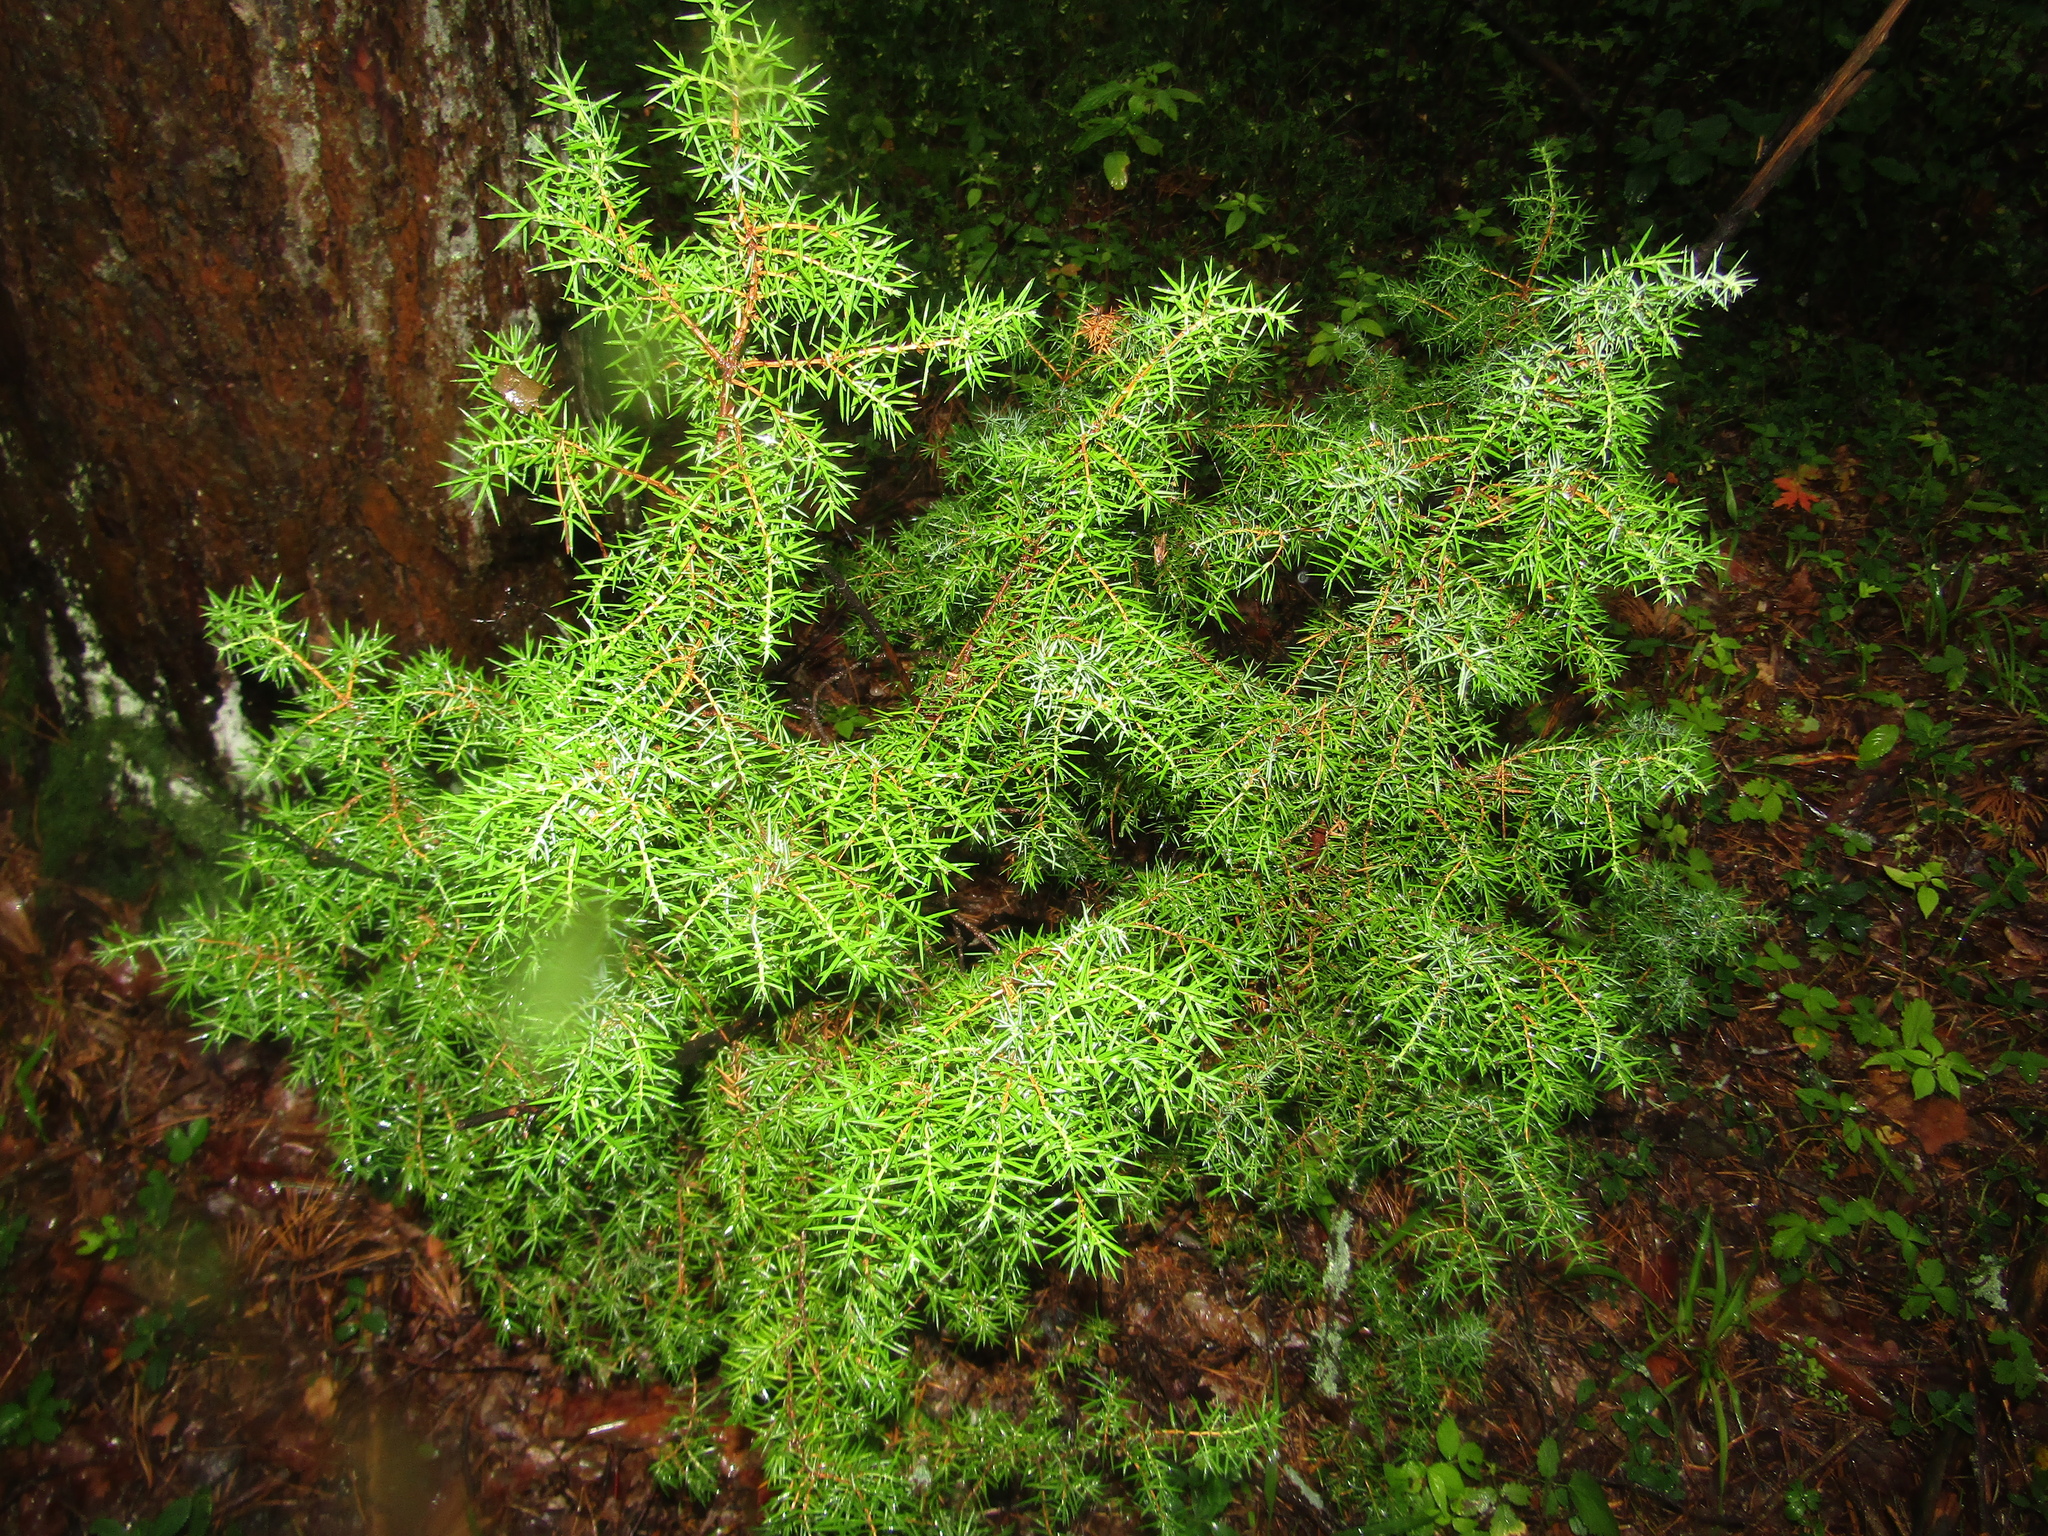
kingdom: Plantae
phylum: Tracheophyta
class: Pinopsida
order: Pinales
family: Cupressaceae
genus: Juniperus
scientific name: Juniperus communis
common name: Common juniper
